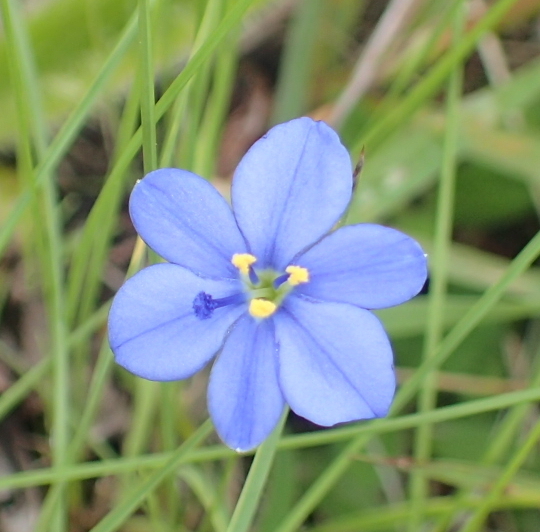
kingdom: Plantae
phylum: Tracheophyta
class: Liliopsida
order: Asparagales
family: Iridaceae
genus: Aristea
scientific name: Aristea torulosa
